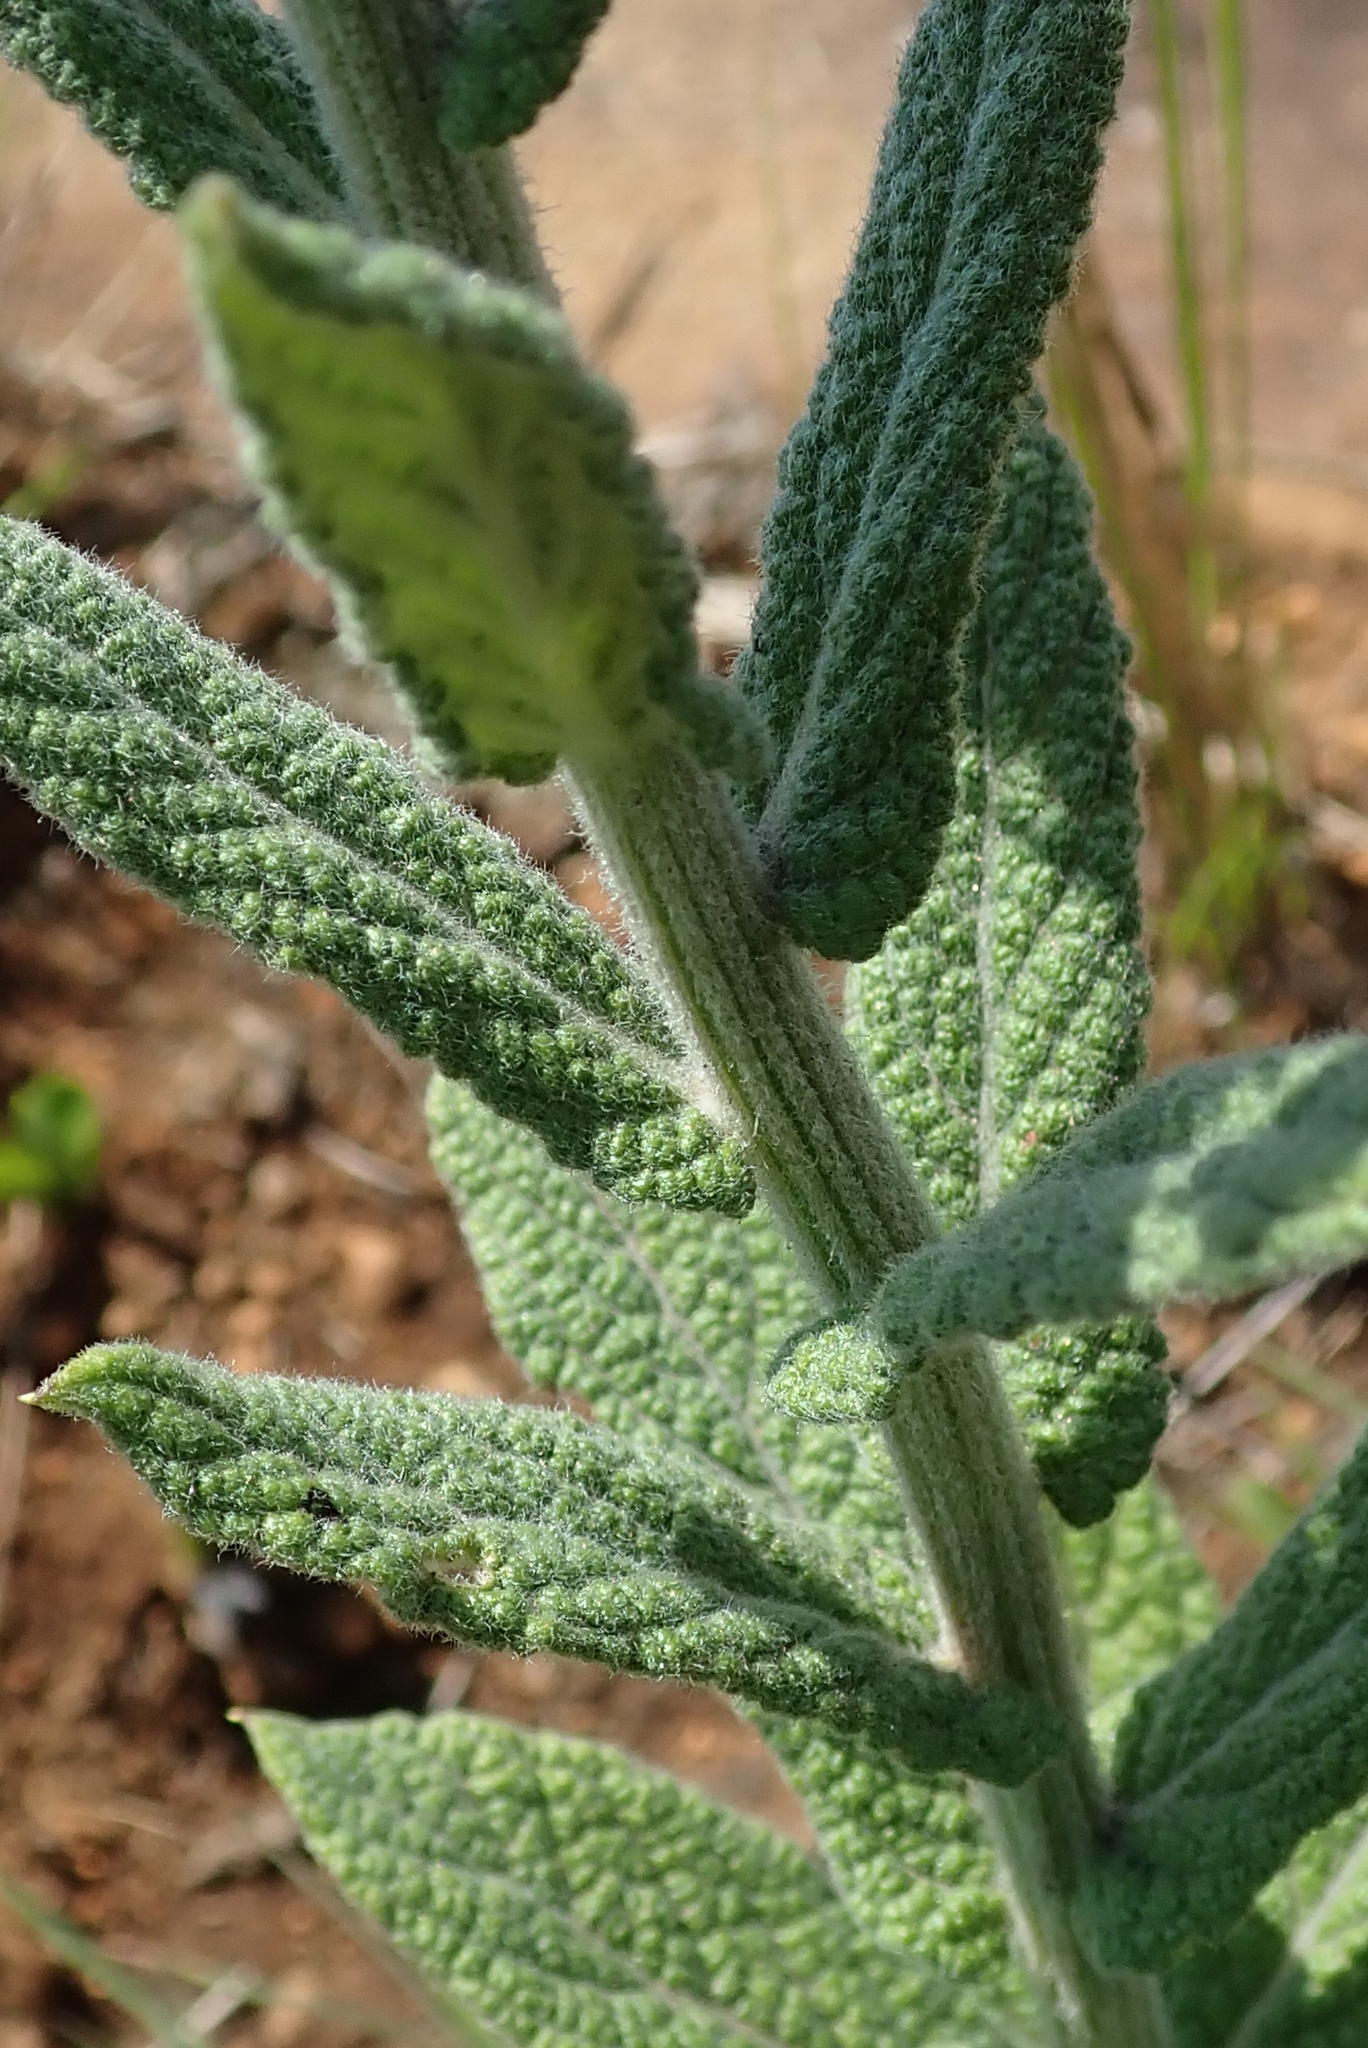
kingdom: Plantae
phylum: Tracheophyta
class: Magnoliopsida
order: Asterales
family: Asteraceae
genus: Hilliardiella
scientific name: Hilliardiella hirsuta
